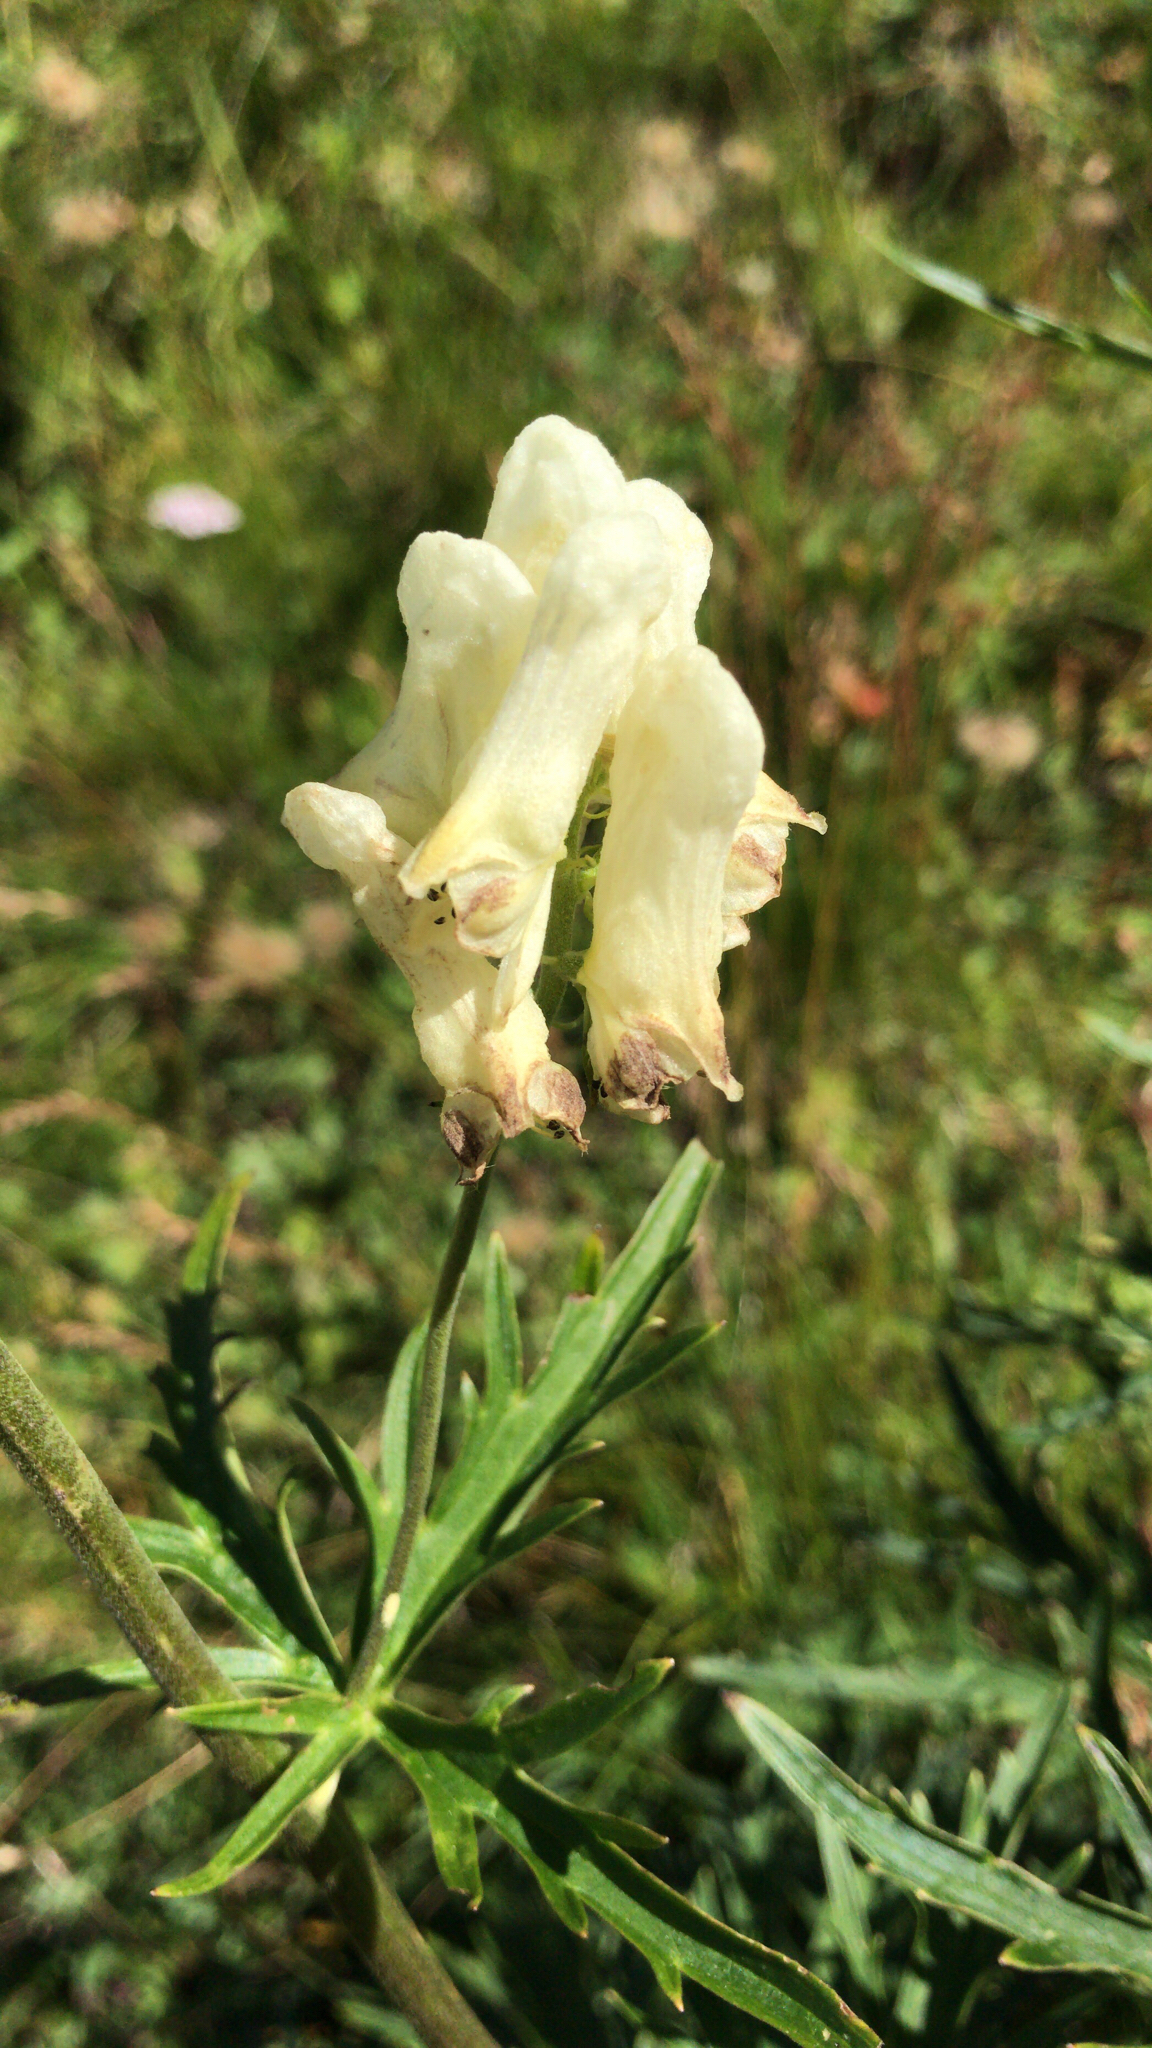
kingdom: Plantae
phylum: Tracheophyta
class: Magnoliopsida
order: Ranunculales
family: Ranunculaceae
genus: Aconitum
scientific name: Aconitum lycoctonum
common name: Wolf's-bane
